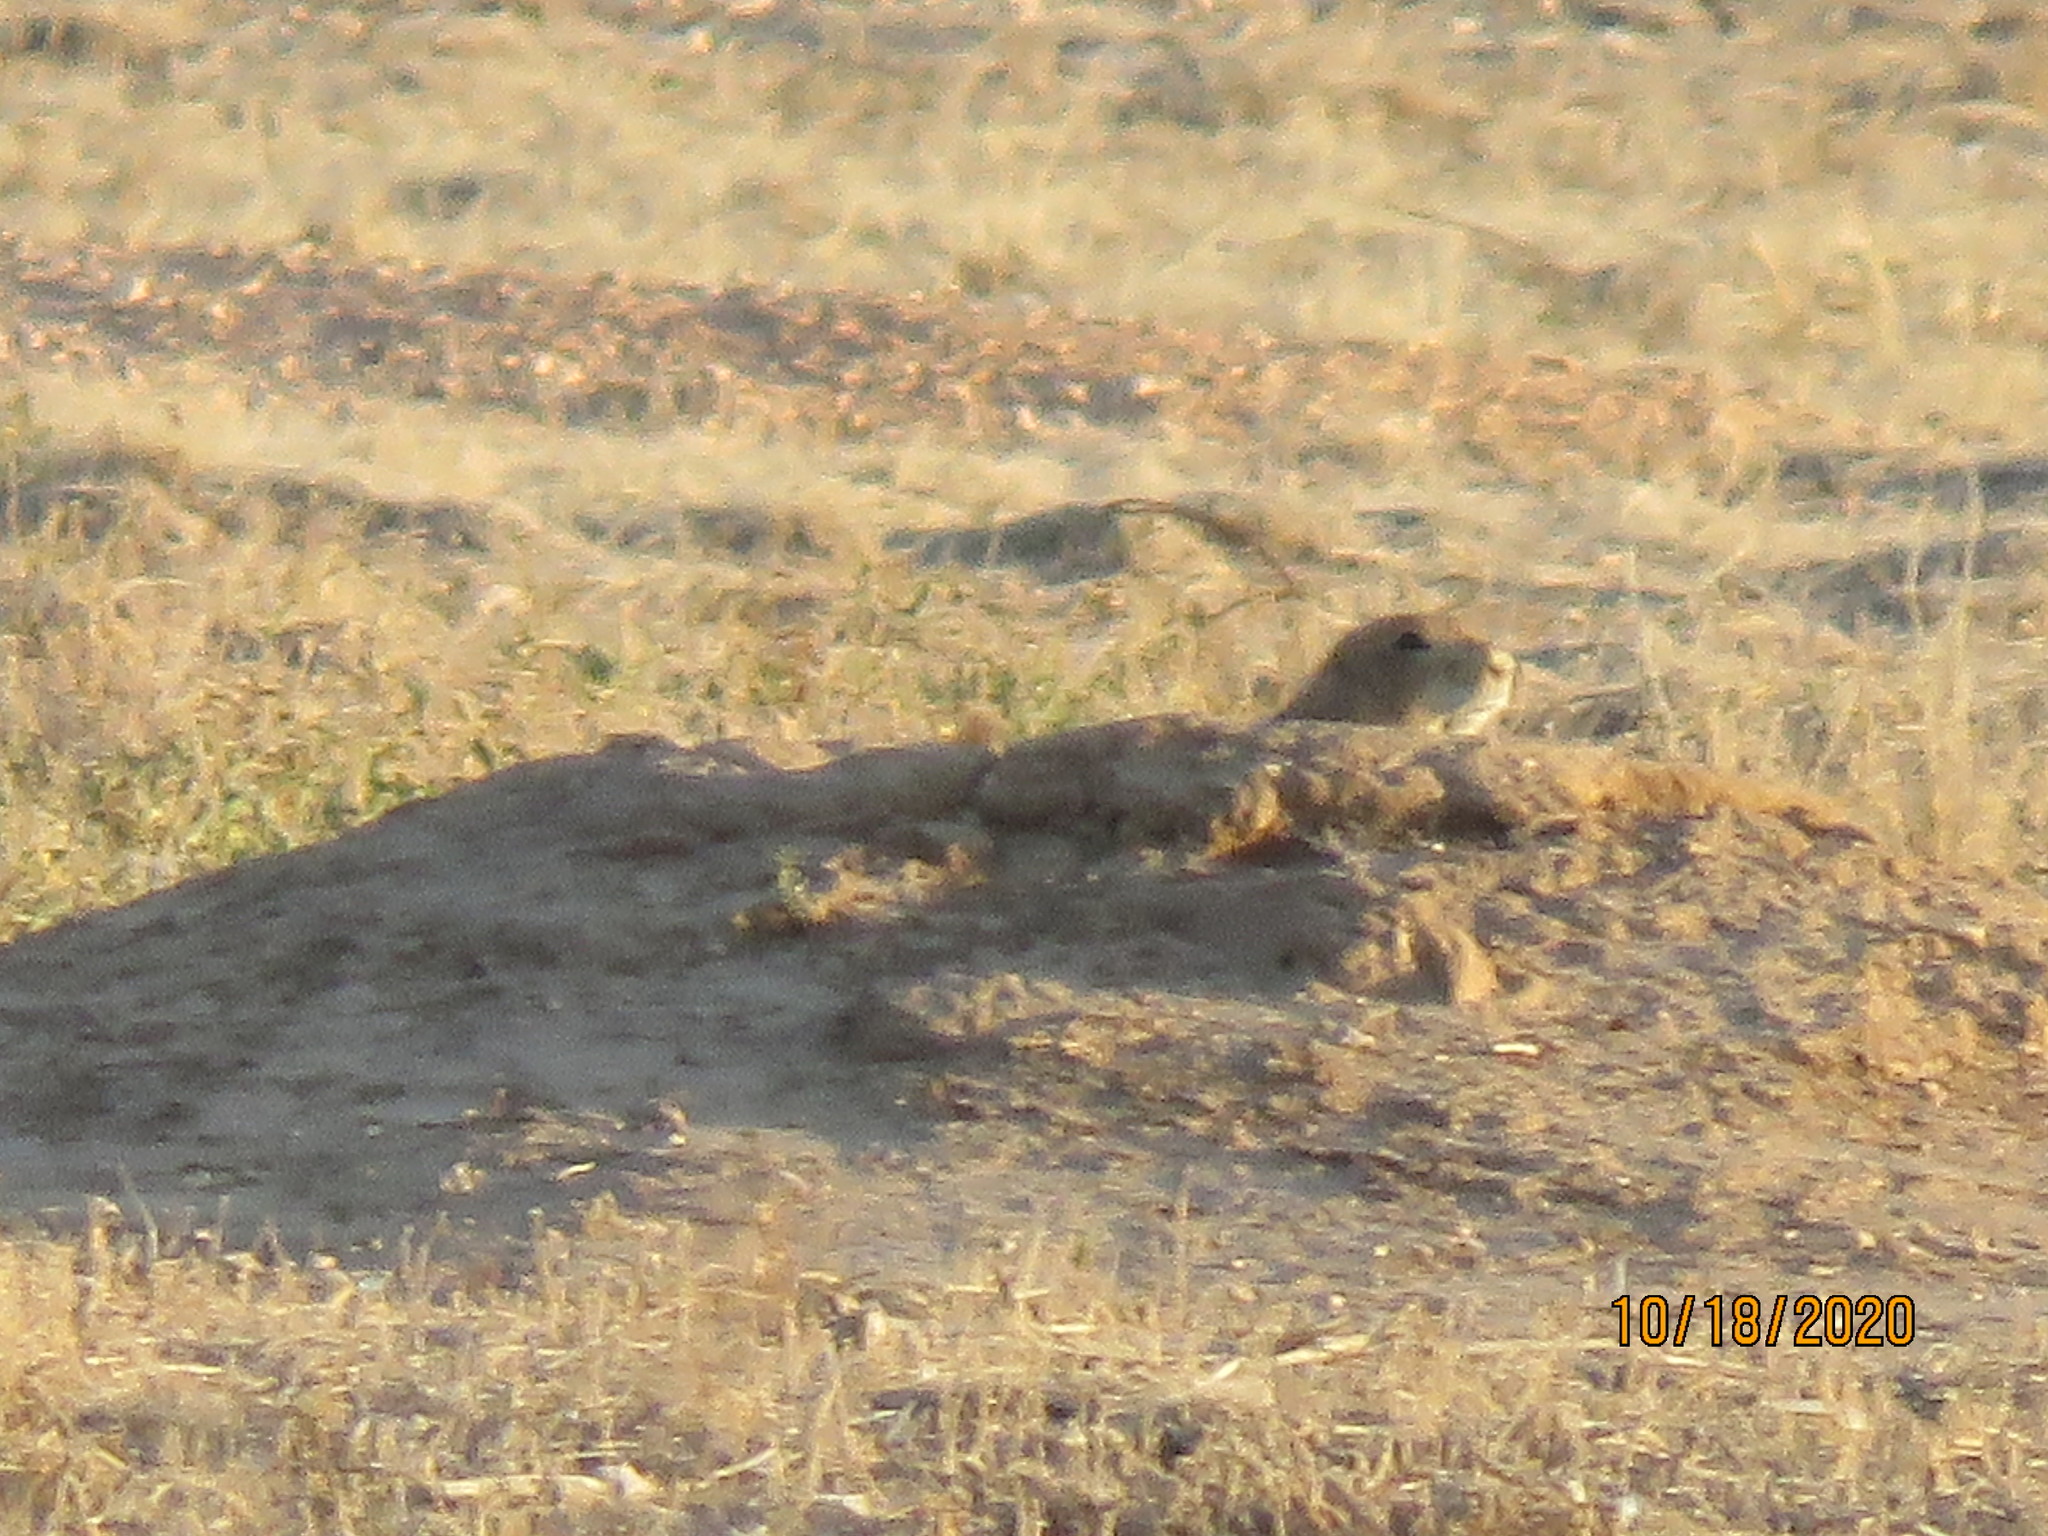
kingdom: Animalia
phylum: Chordata
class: Mammalia
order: Rodentia
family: Sciuridae
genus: Cynomys
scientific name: Cynomys ludovicianus
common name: Black-tailed prairie dog
